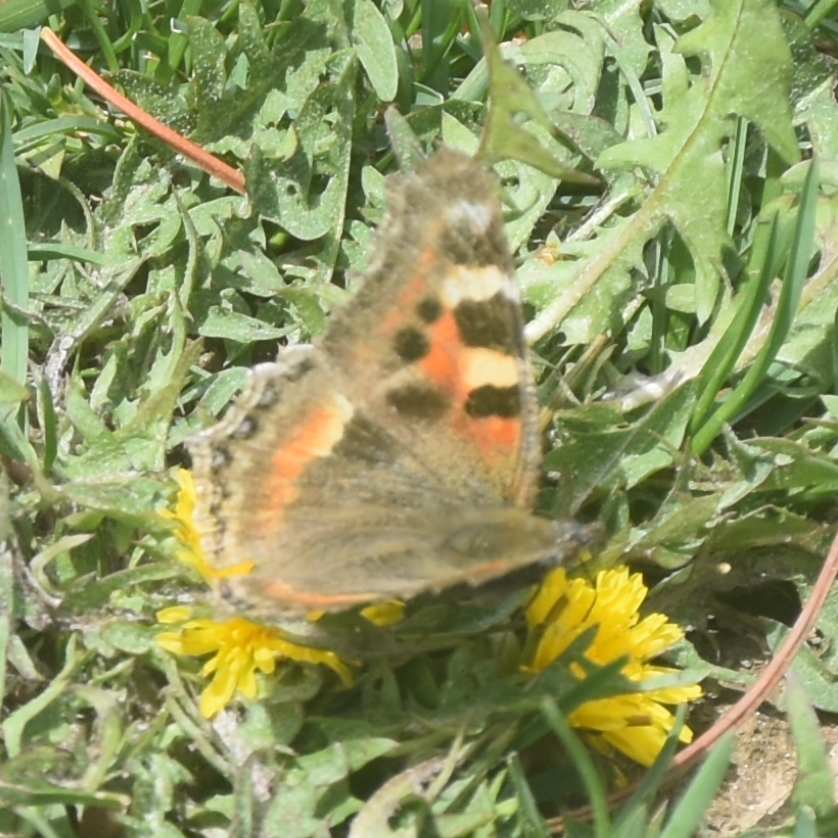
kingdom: Animalia
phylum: Arthropoda
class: Insecta
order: Lepidoptera
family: Nymphalidae
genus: Aglais
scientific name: Aglais caschmirensis
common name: Indian tortoiseshell
